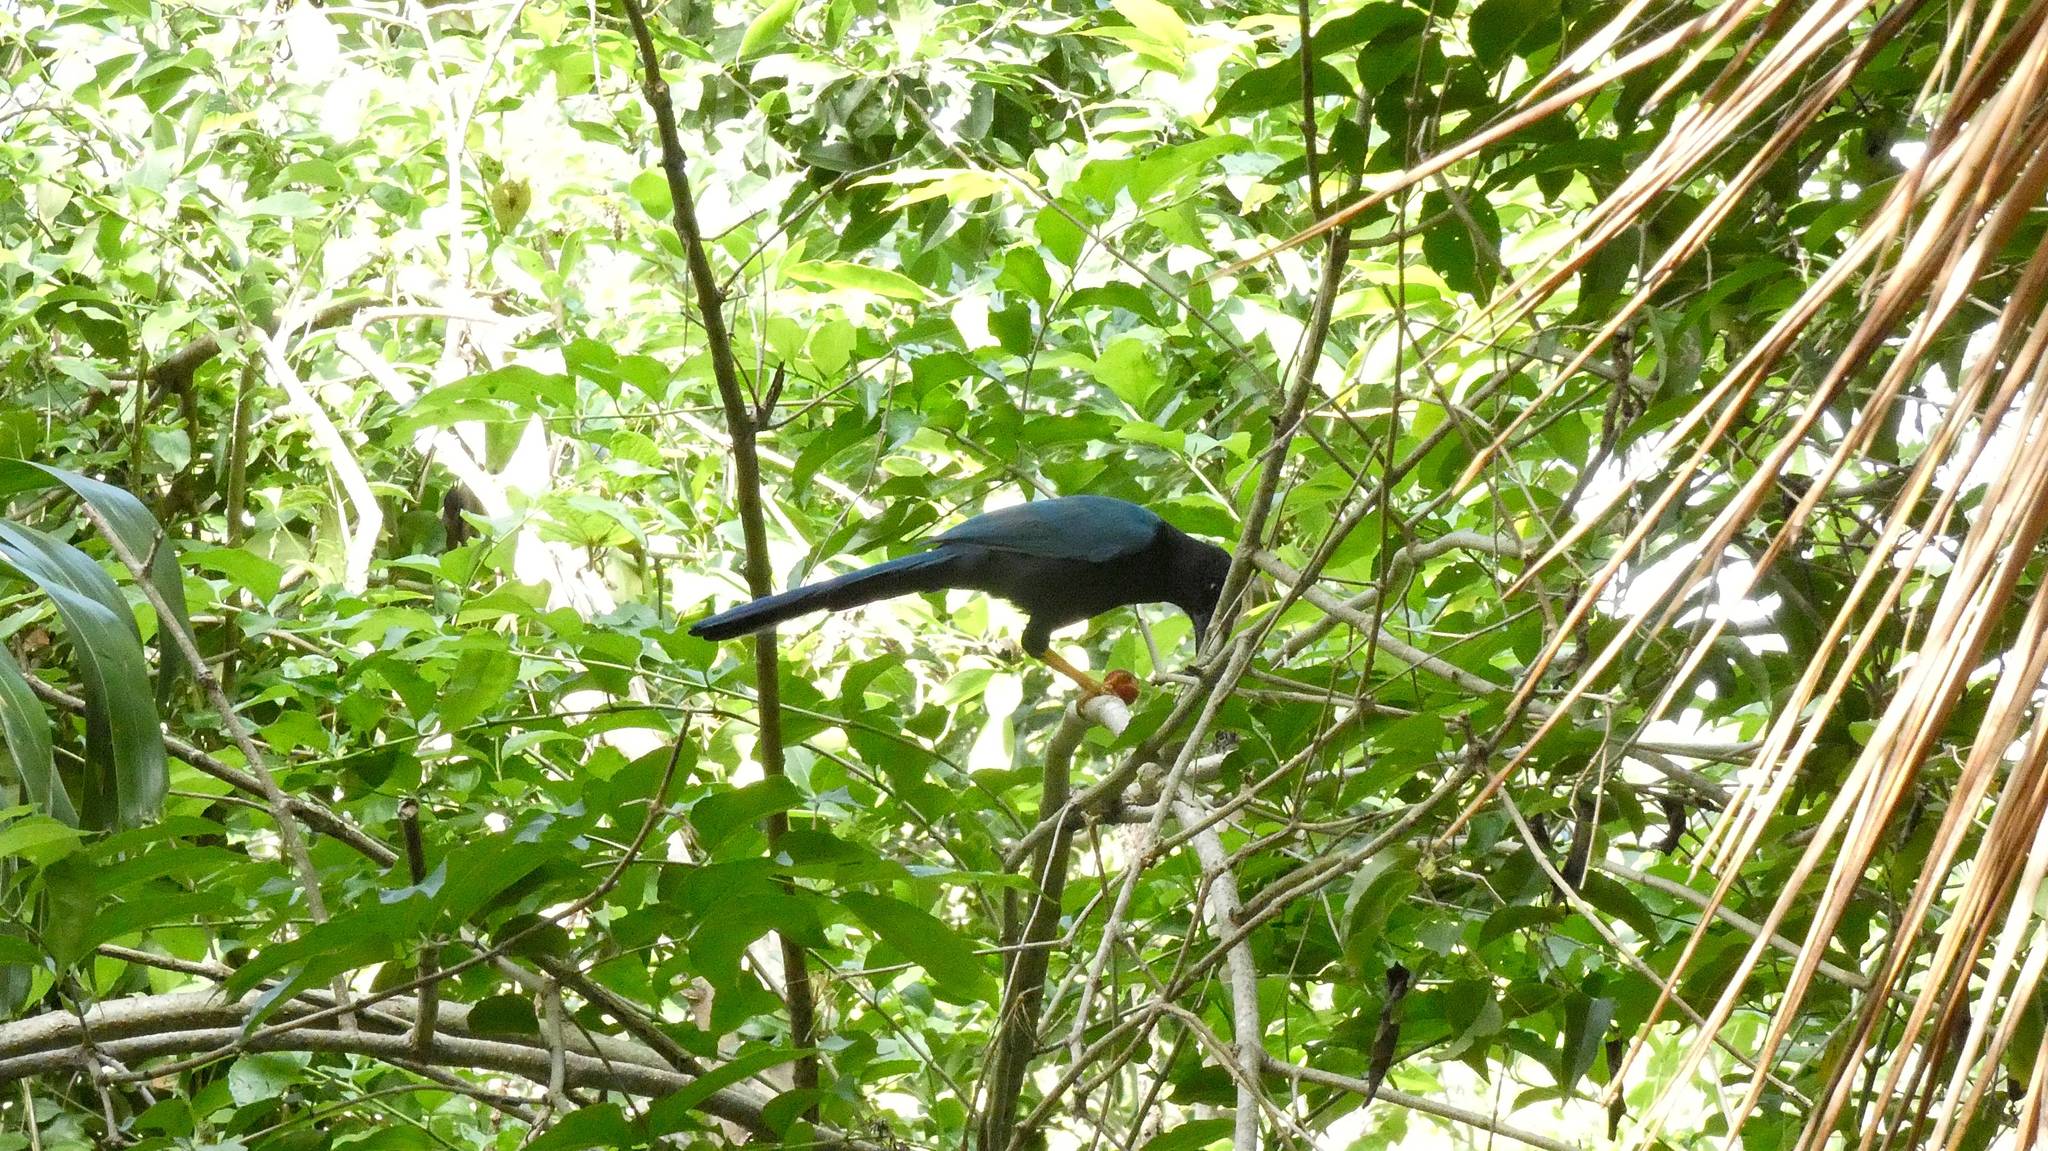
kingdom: Animalia
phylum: Chordata
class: Aves
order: Passeriformes
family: Corvidae
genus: Cyanocorax
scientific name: Cyanocorax yucatanicus
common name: Yucatan jay
